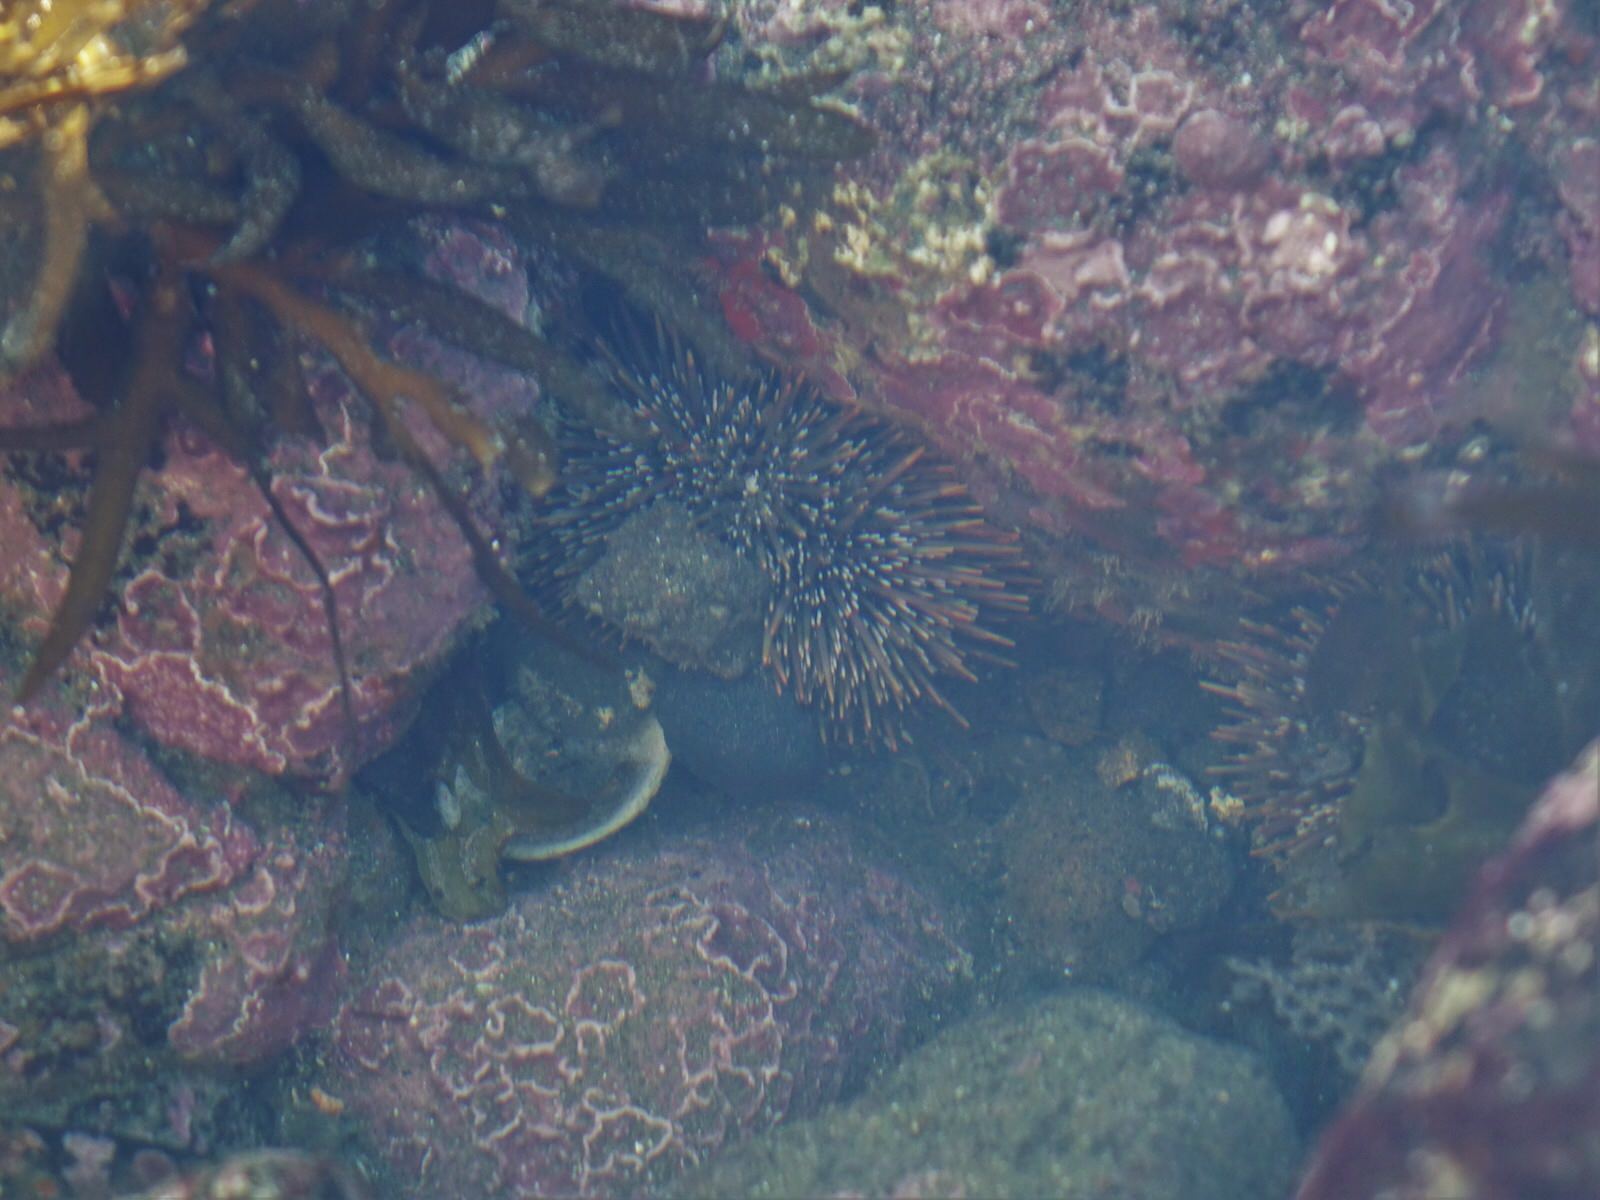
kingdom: Animalia
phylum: Echinodermata
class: Echinoidea
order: Camarodonta
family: Echinometridae
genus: Evechinus
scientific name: Evechinus chloroticus
